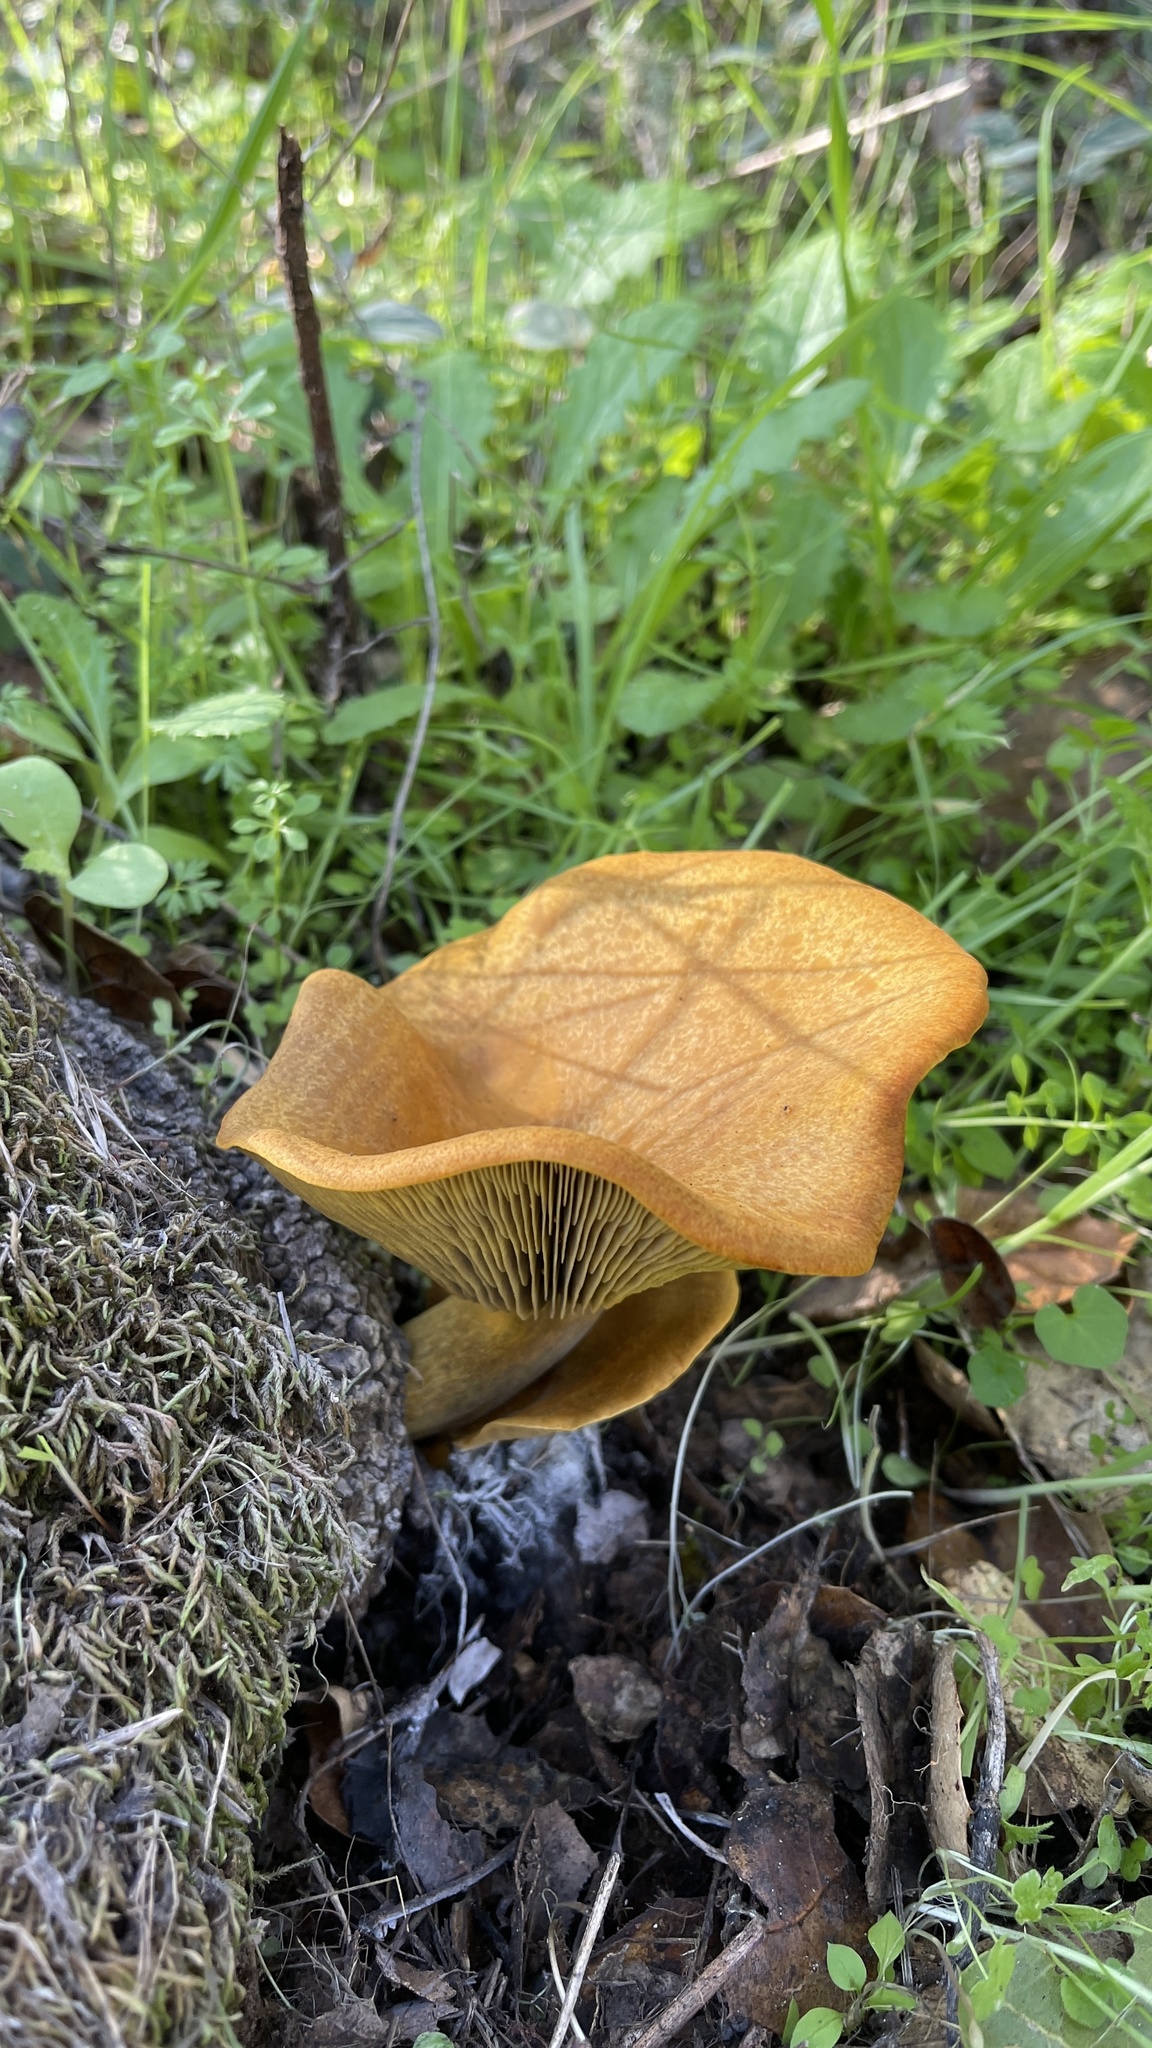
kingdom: Fungi
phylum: Basidiomycota
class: Agaricomycetes
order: Agaricales
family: Omphalotaceae
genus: Omphalotus
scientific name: Omphalotus olivascens
